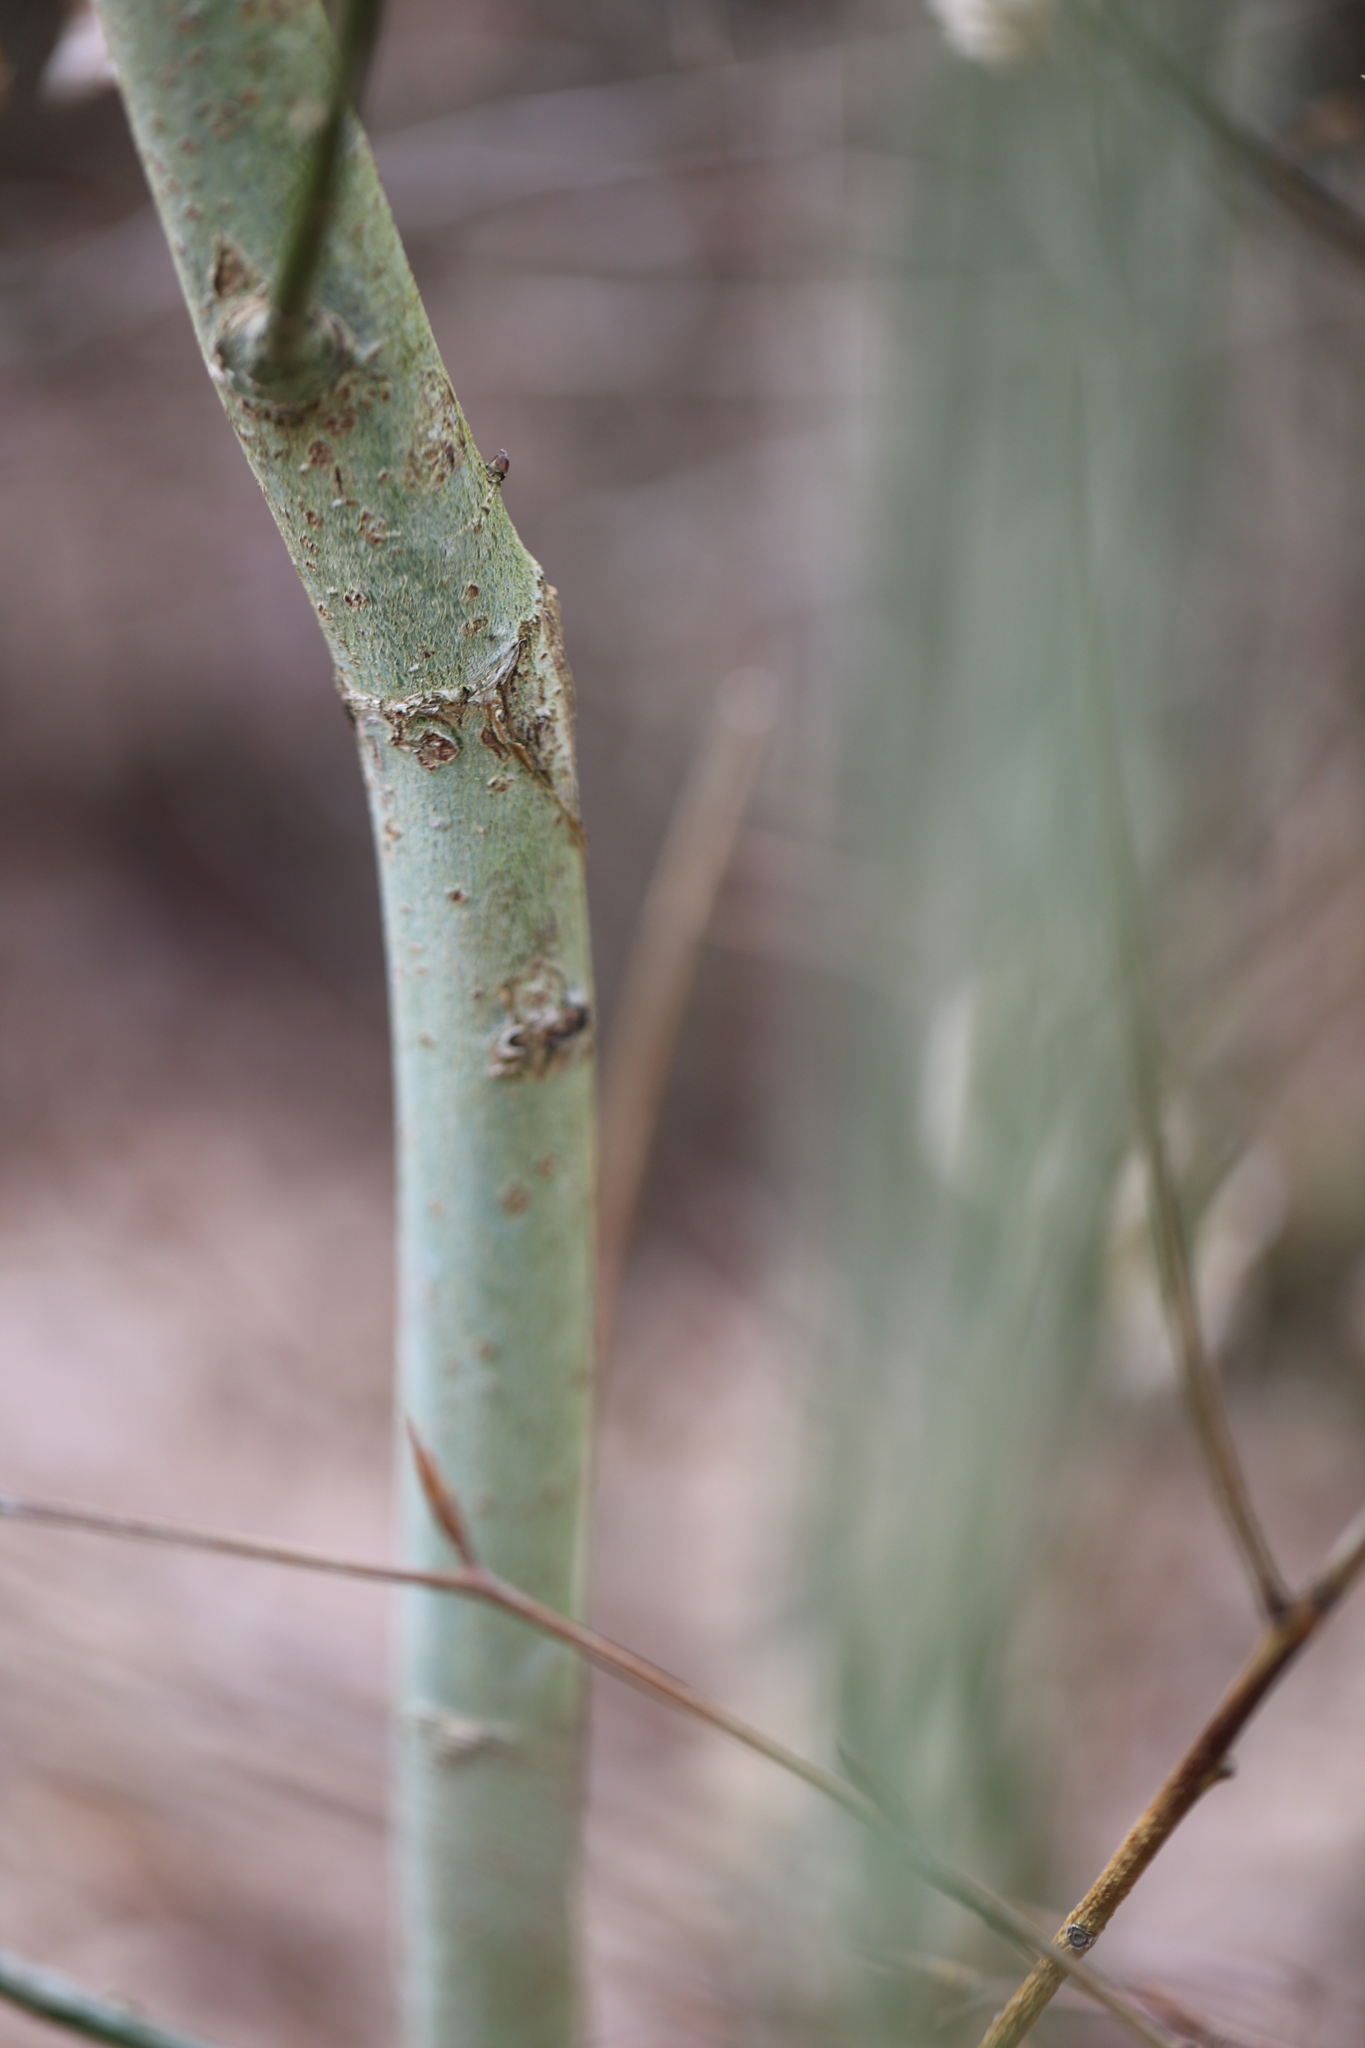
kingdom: Plantae
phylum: Tracheophyta
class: Magnoliopsida
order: Malpighiales
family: Salicaceae
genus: Salix
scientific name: Salix caprea
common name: Goat willow
